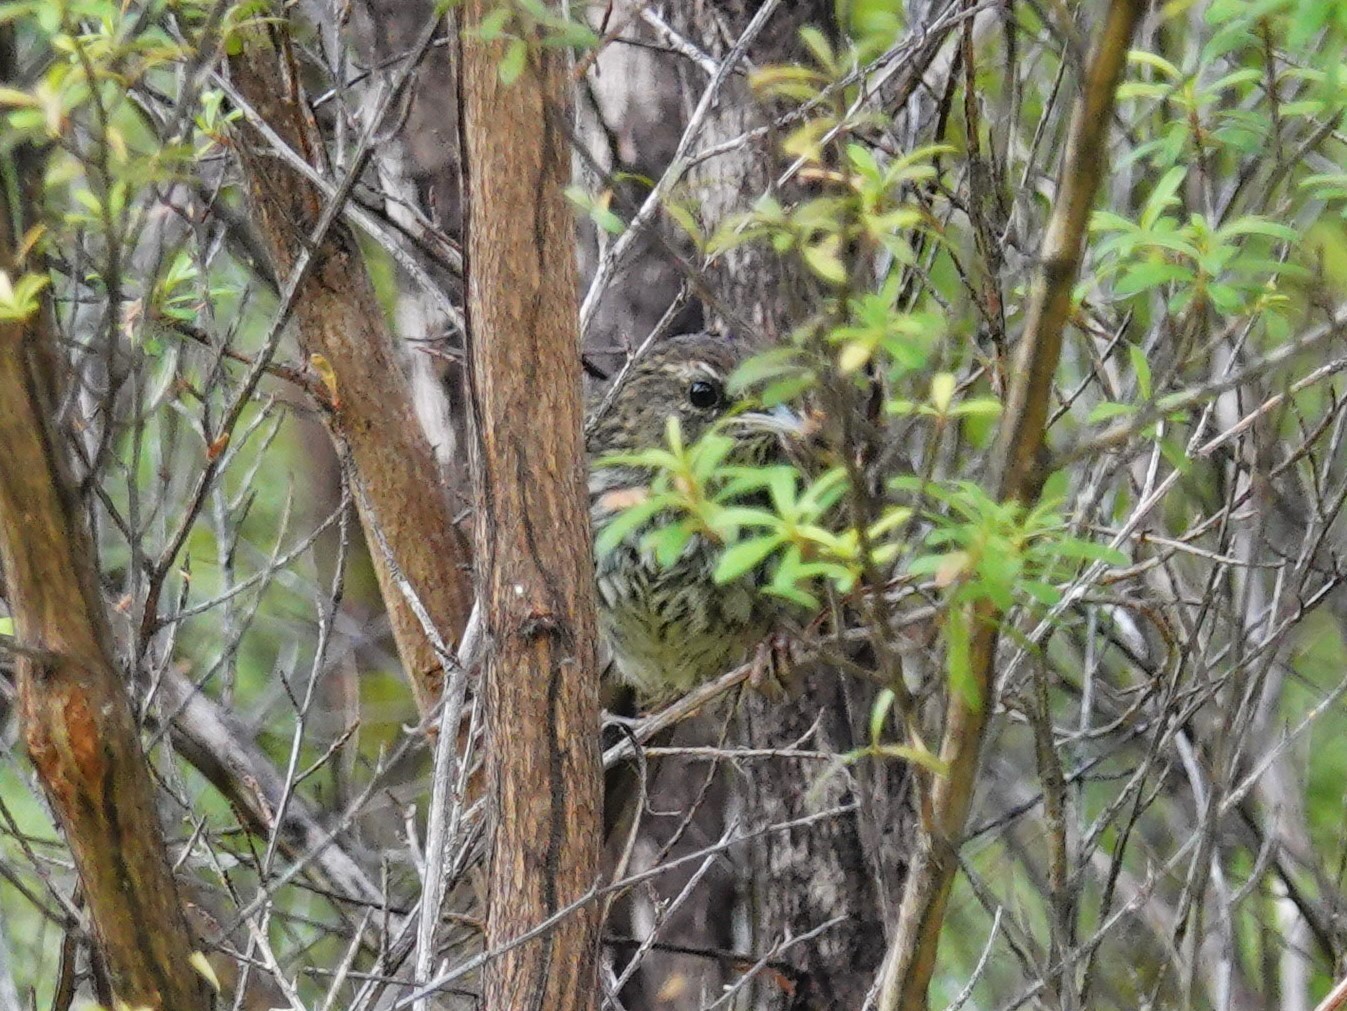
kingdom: Animalia
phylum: Chordata
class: Aves
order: Passeriformes
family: Locustellidae
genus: Megalurus
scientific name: Megalurus punctatus
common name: New zealand fernbird
